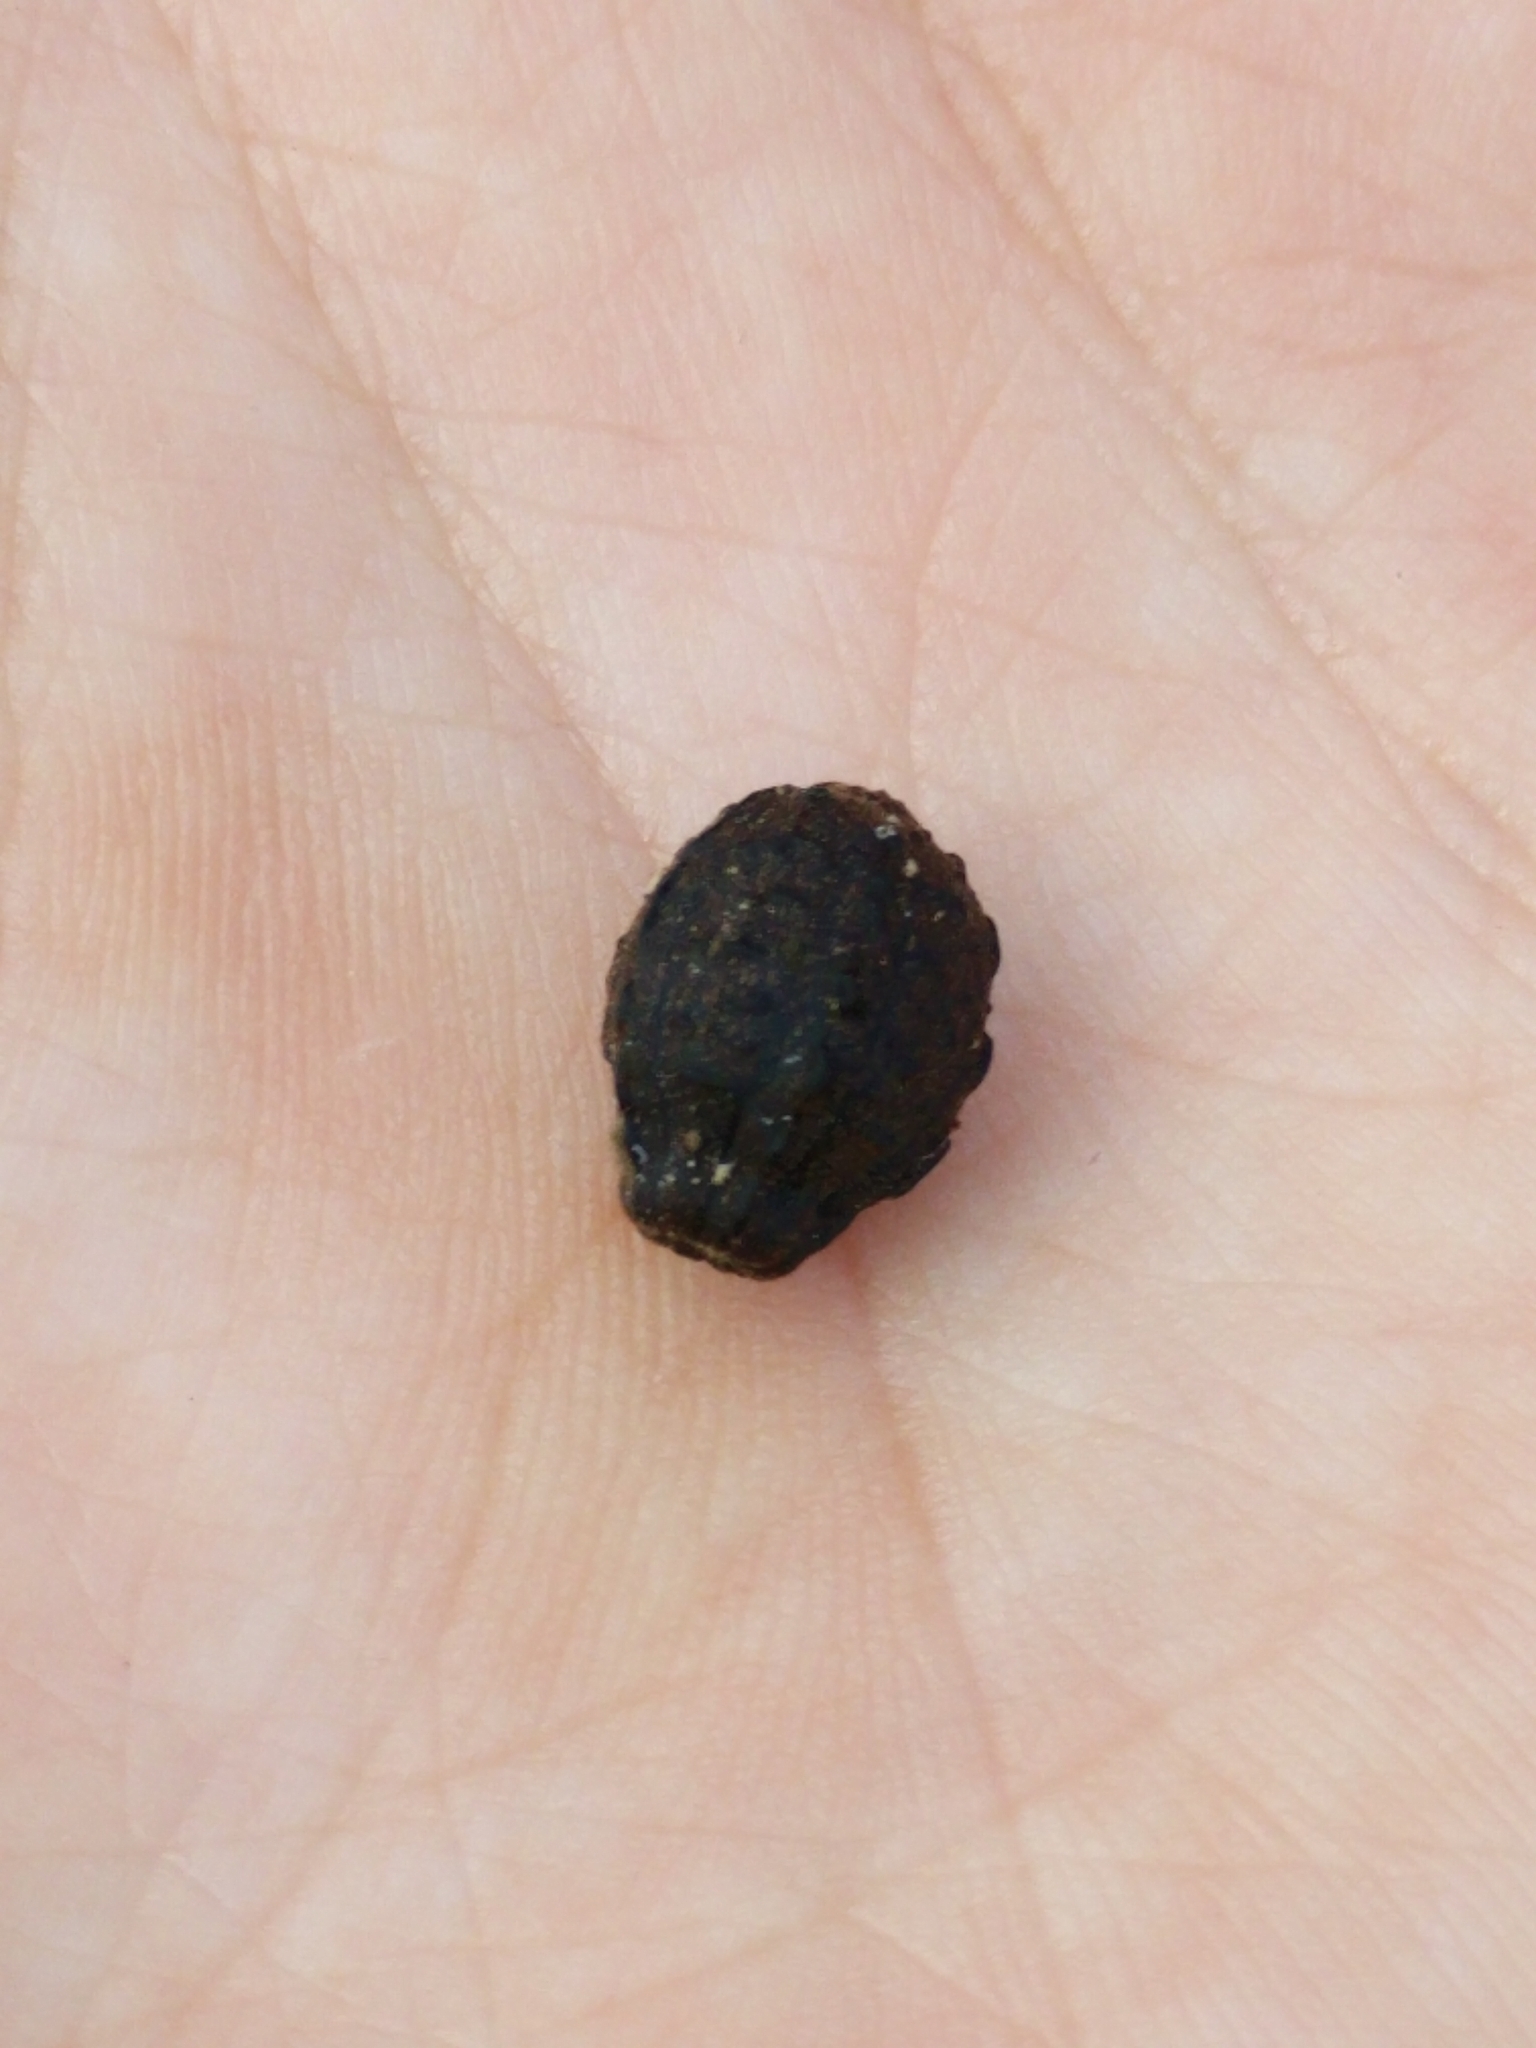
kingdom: Plantae
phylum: Tracheophyta
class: Magnoliopsida
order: Caryophyllales
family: Nyctaginaceae
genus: Mirabilis
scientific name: Mirabilis jalapa
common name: Marvel-of-peru
